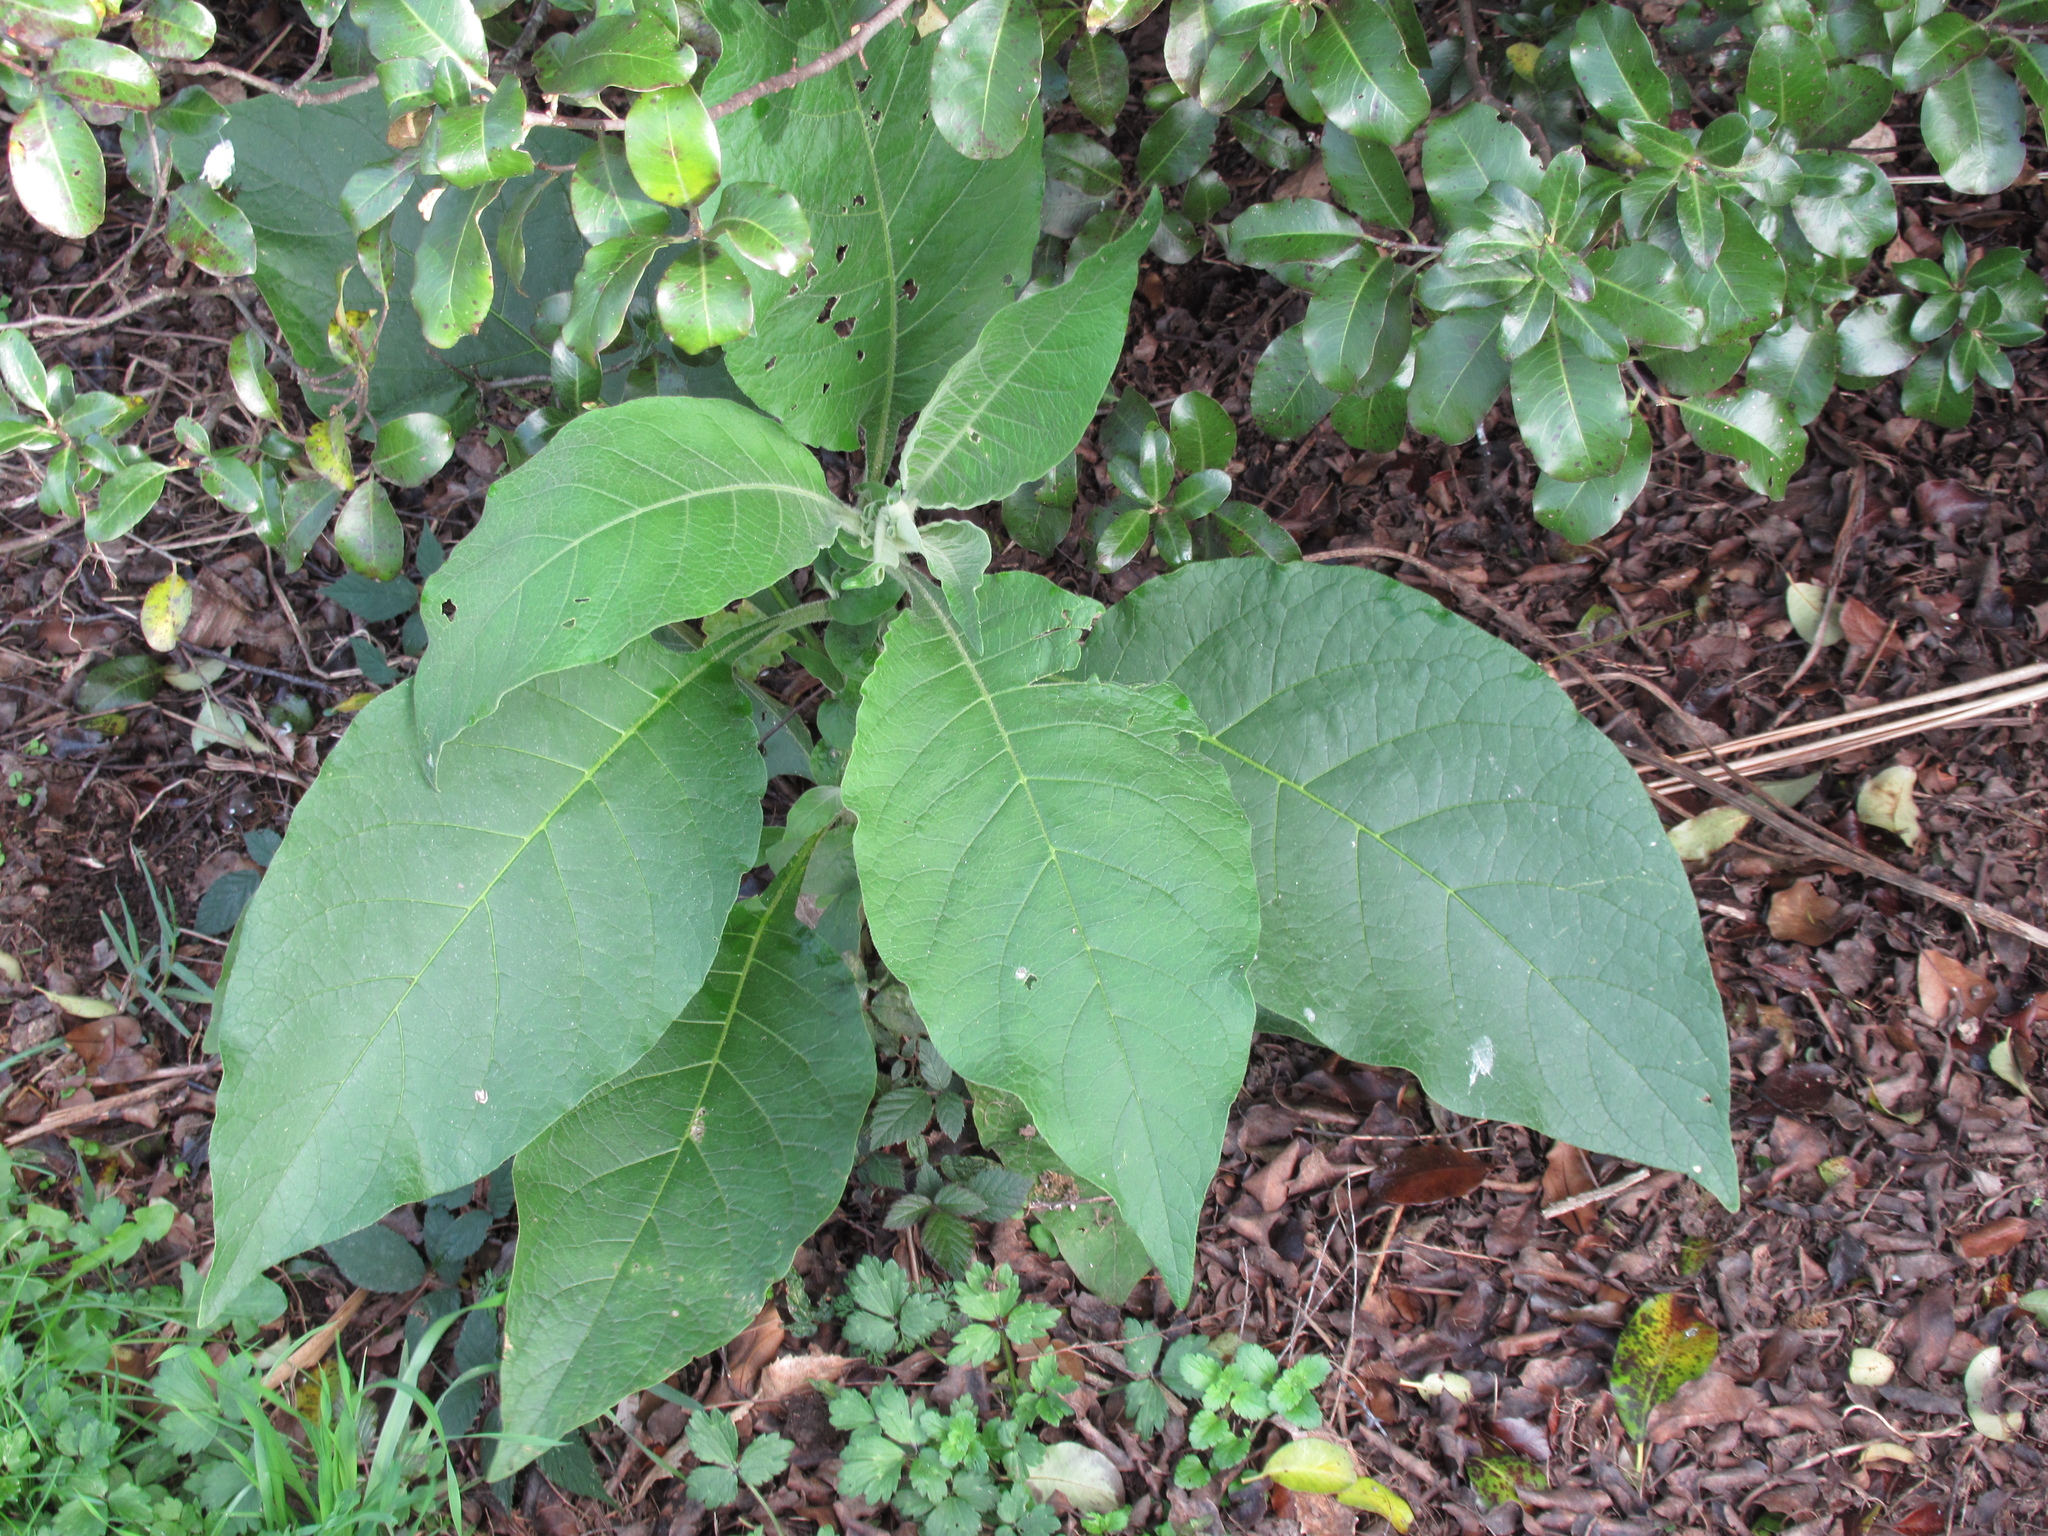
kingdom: Plantae
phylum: Tracheophyta
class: Magnoliopsida
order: Solanales
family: Solanaceae
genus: Solanum
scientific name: Solanum mauritianum
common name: Earleaf nightshade
